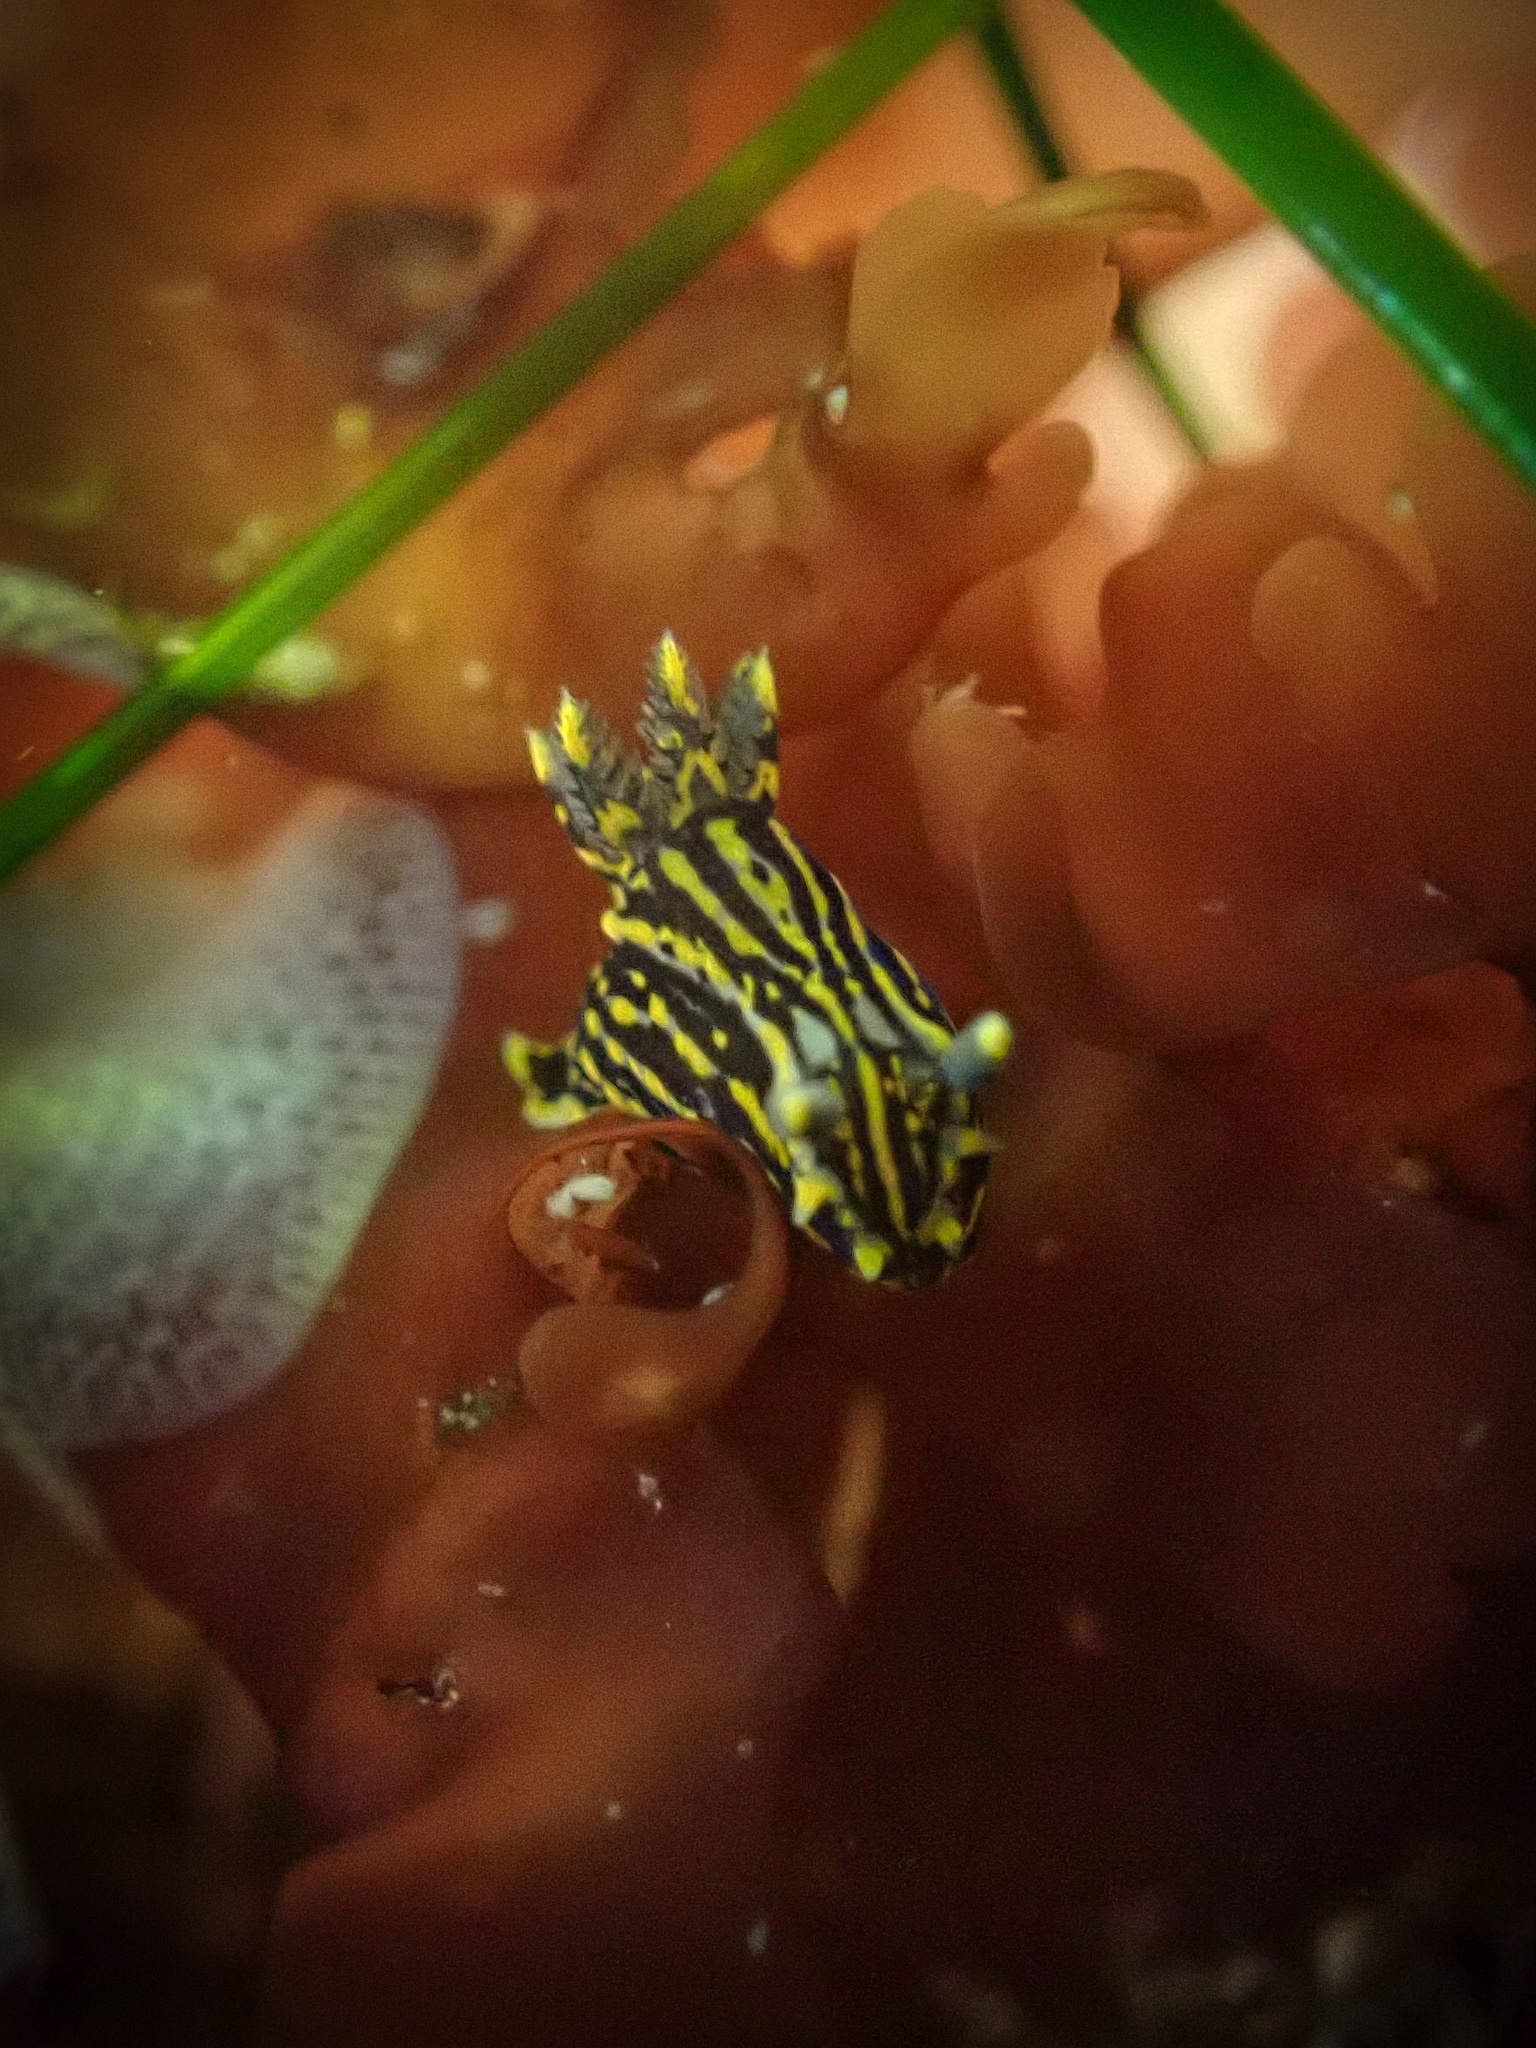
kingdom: Animalia
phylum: Mollusca
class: Gastropoda
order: Nudibranchia
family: Polyceridae
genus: Polycera
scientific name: Polycera atra
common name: Orange-spike polycera
